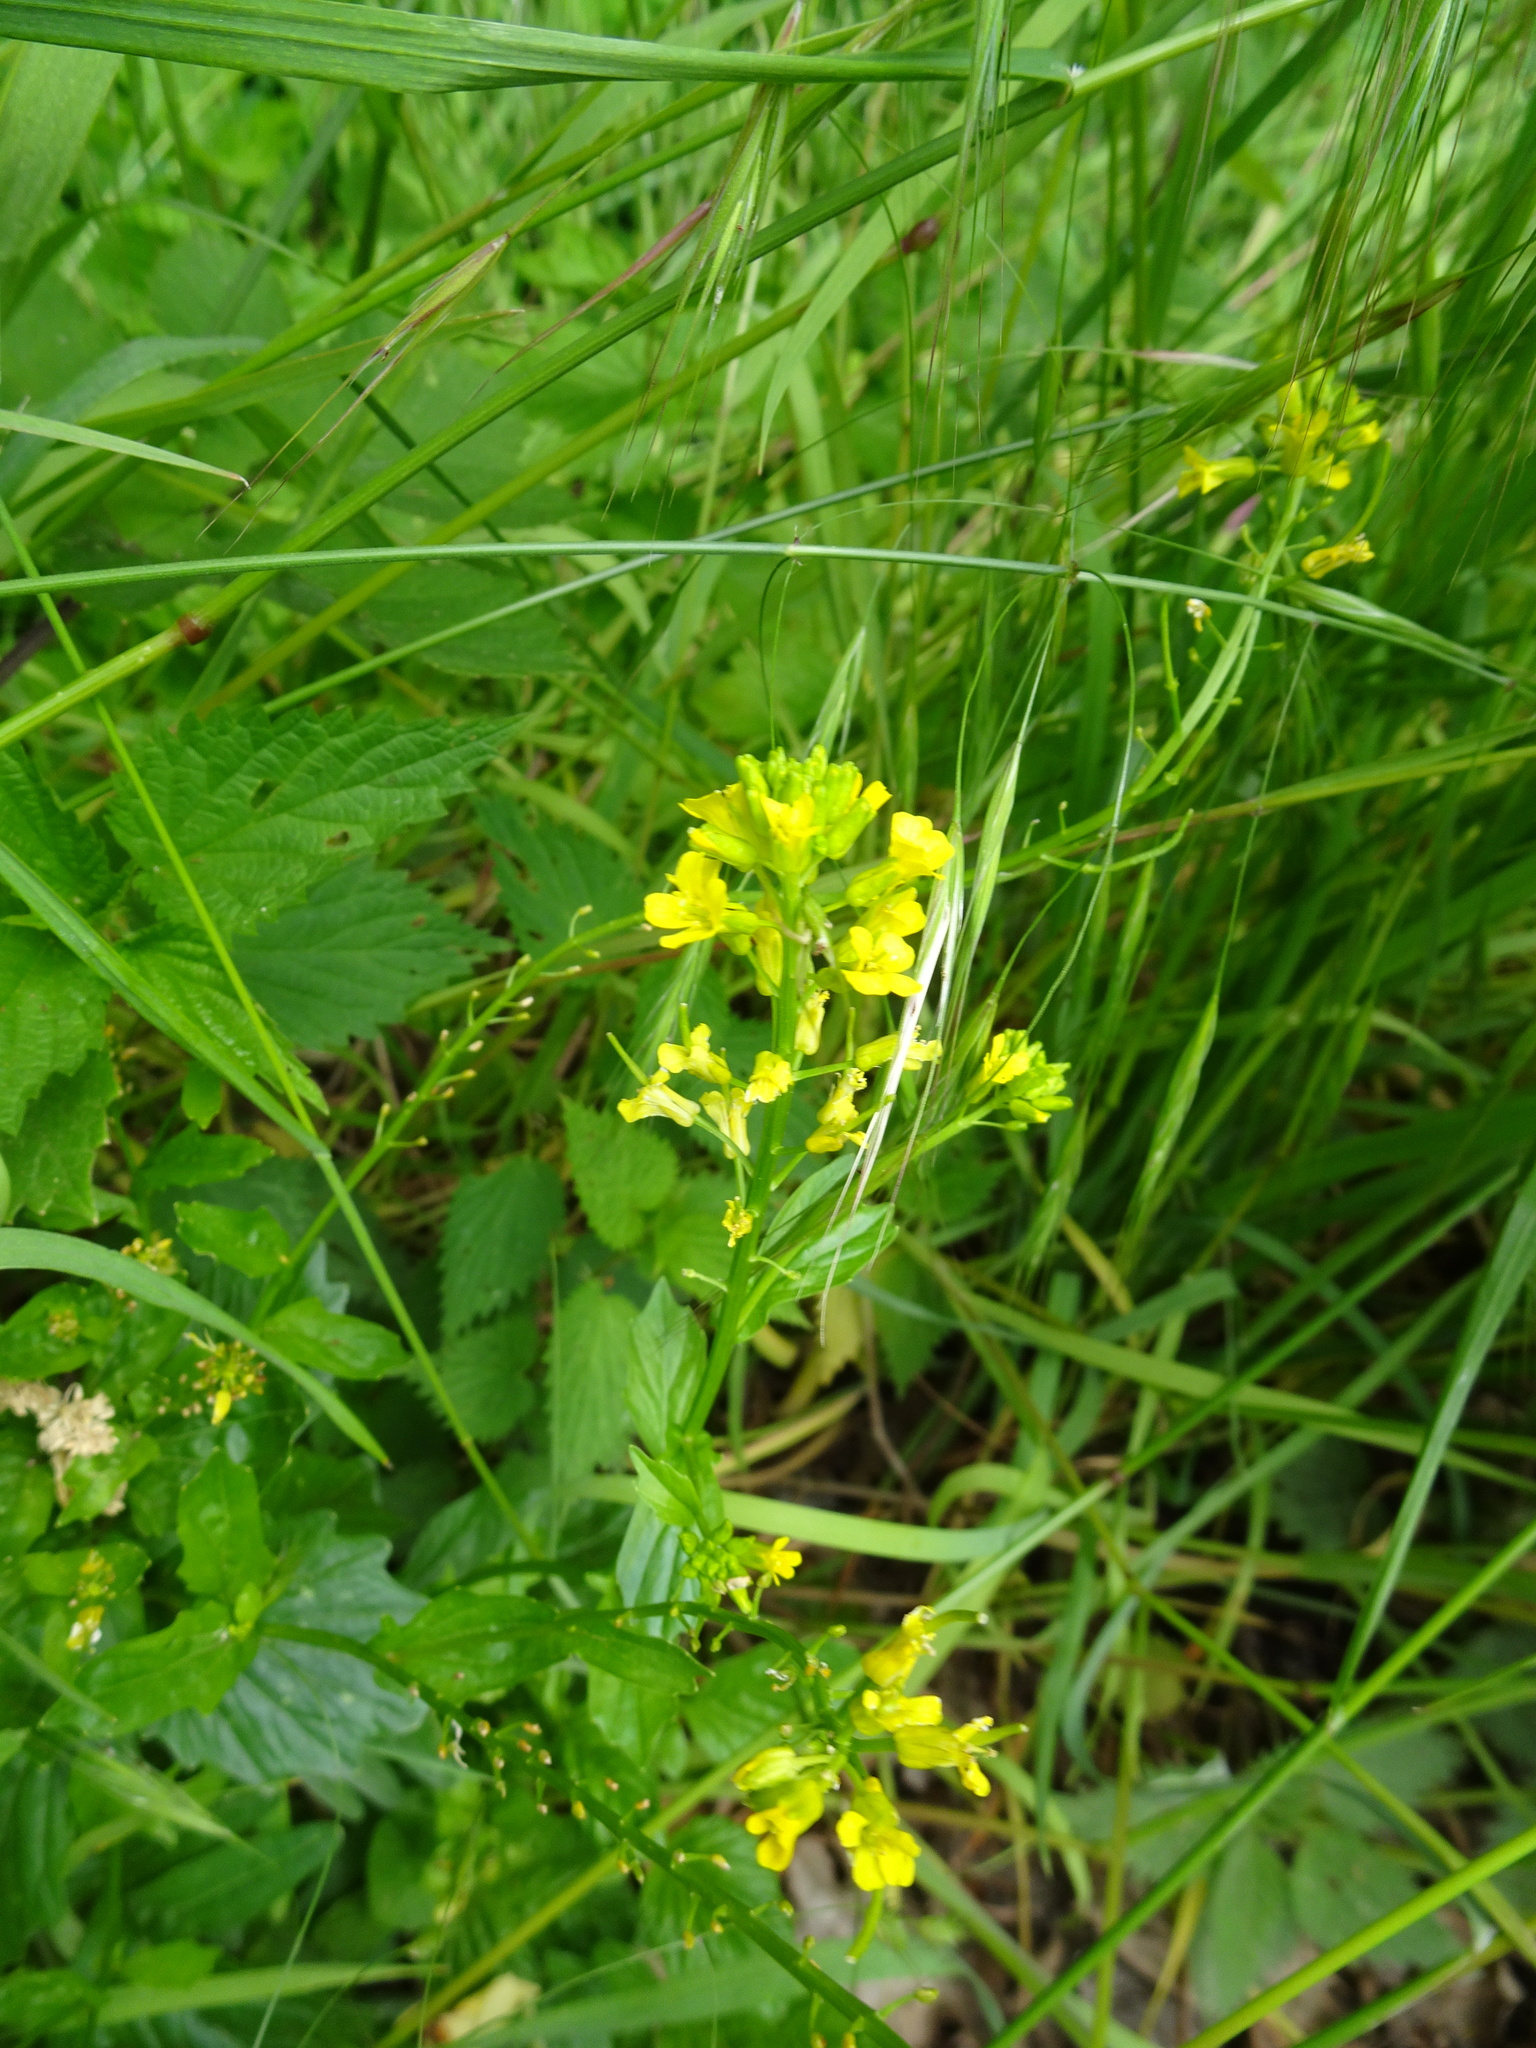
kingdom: Plantae
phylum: Tracheophyta
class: Magnoliopsida
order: Brassicales
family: Brassicaceae
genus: Barbarea
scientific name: Barbarea vulgaris
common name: Cressy-greens
